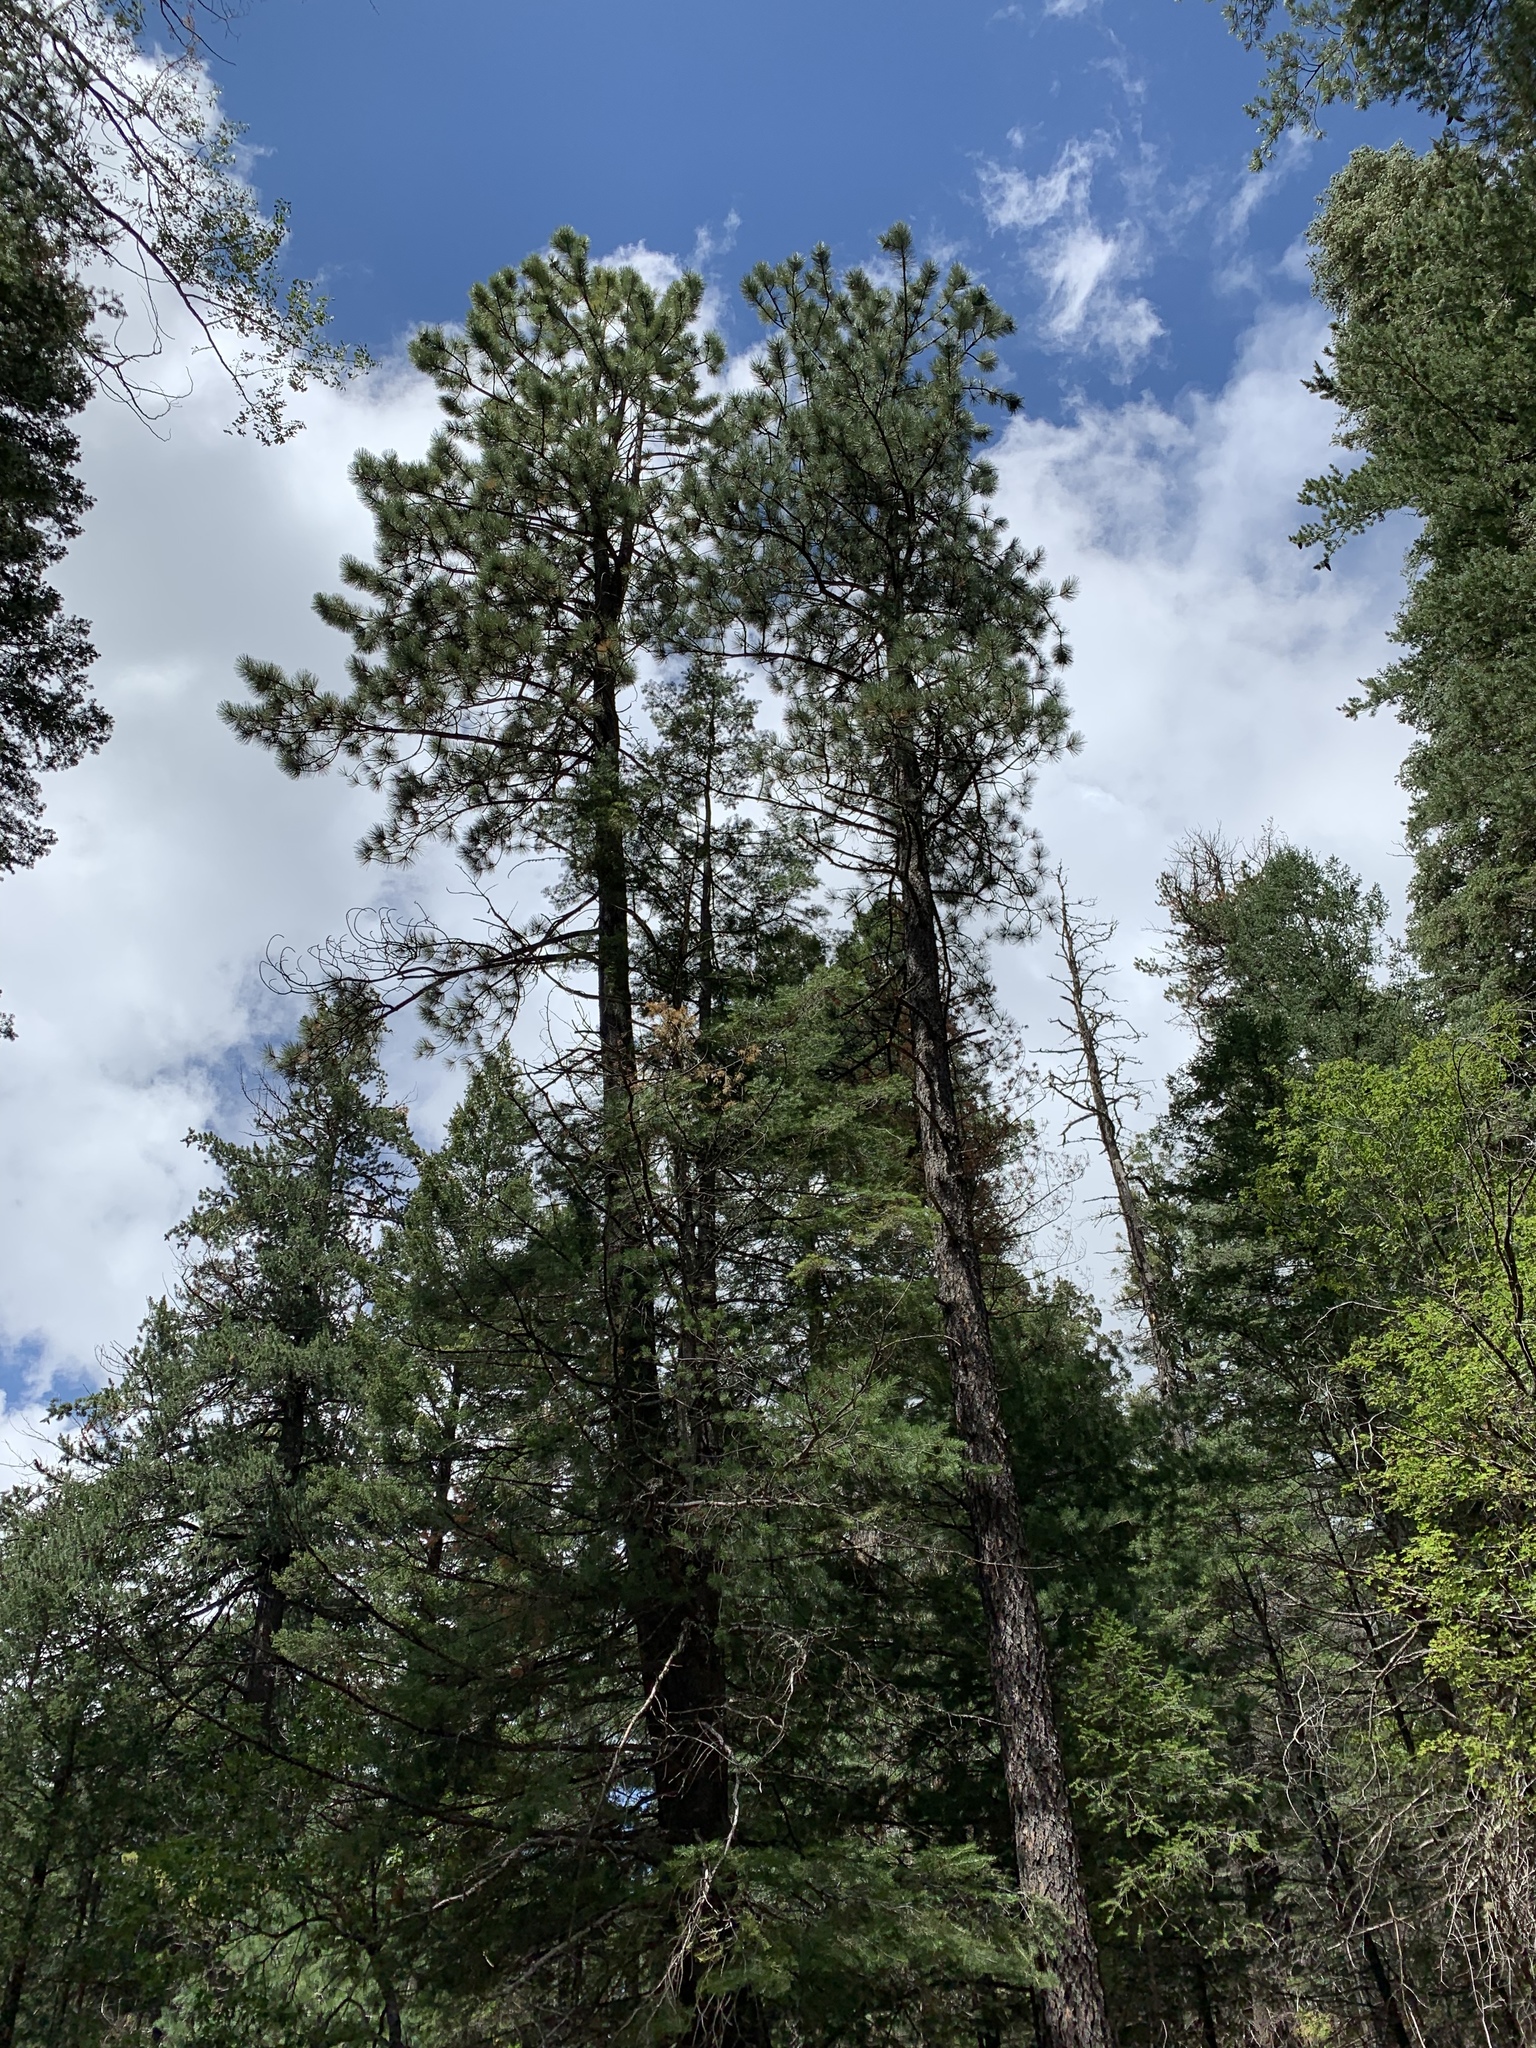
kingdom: Plantae
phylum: Tracheophyta
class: Pinopsida
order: Pinales
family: Pinaceae
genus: Pinus
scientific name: Pinus ponderosa
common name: Western yellow-pine
